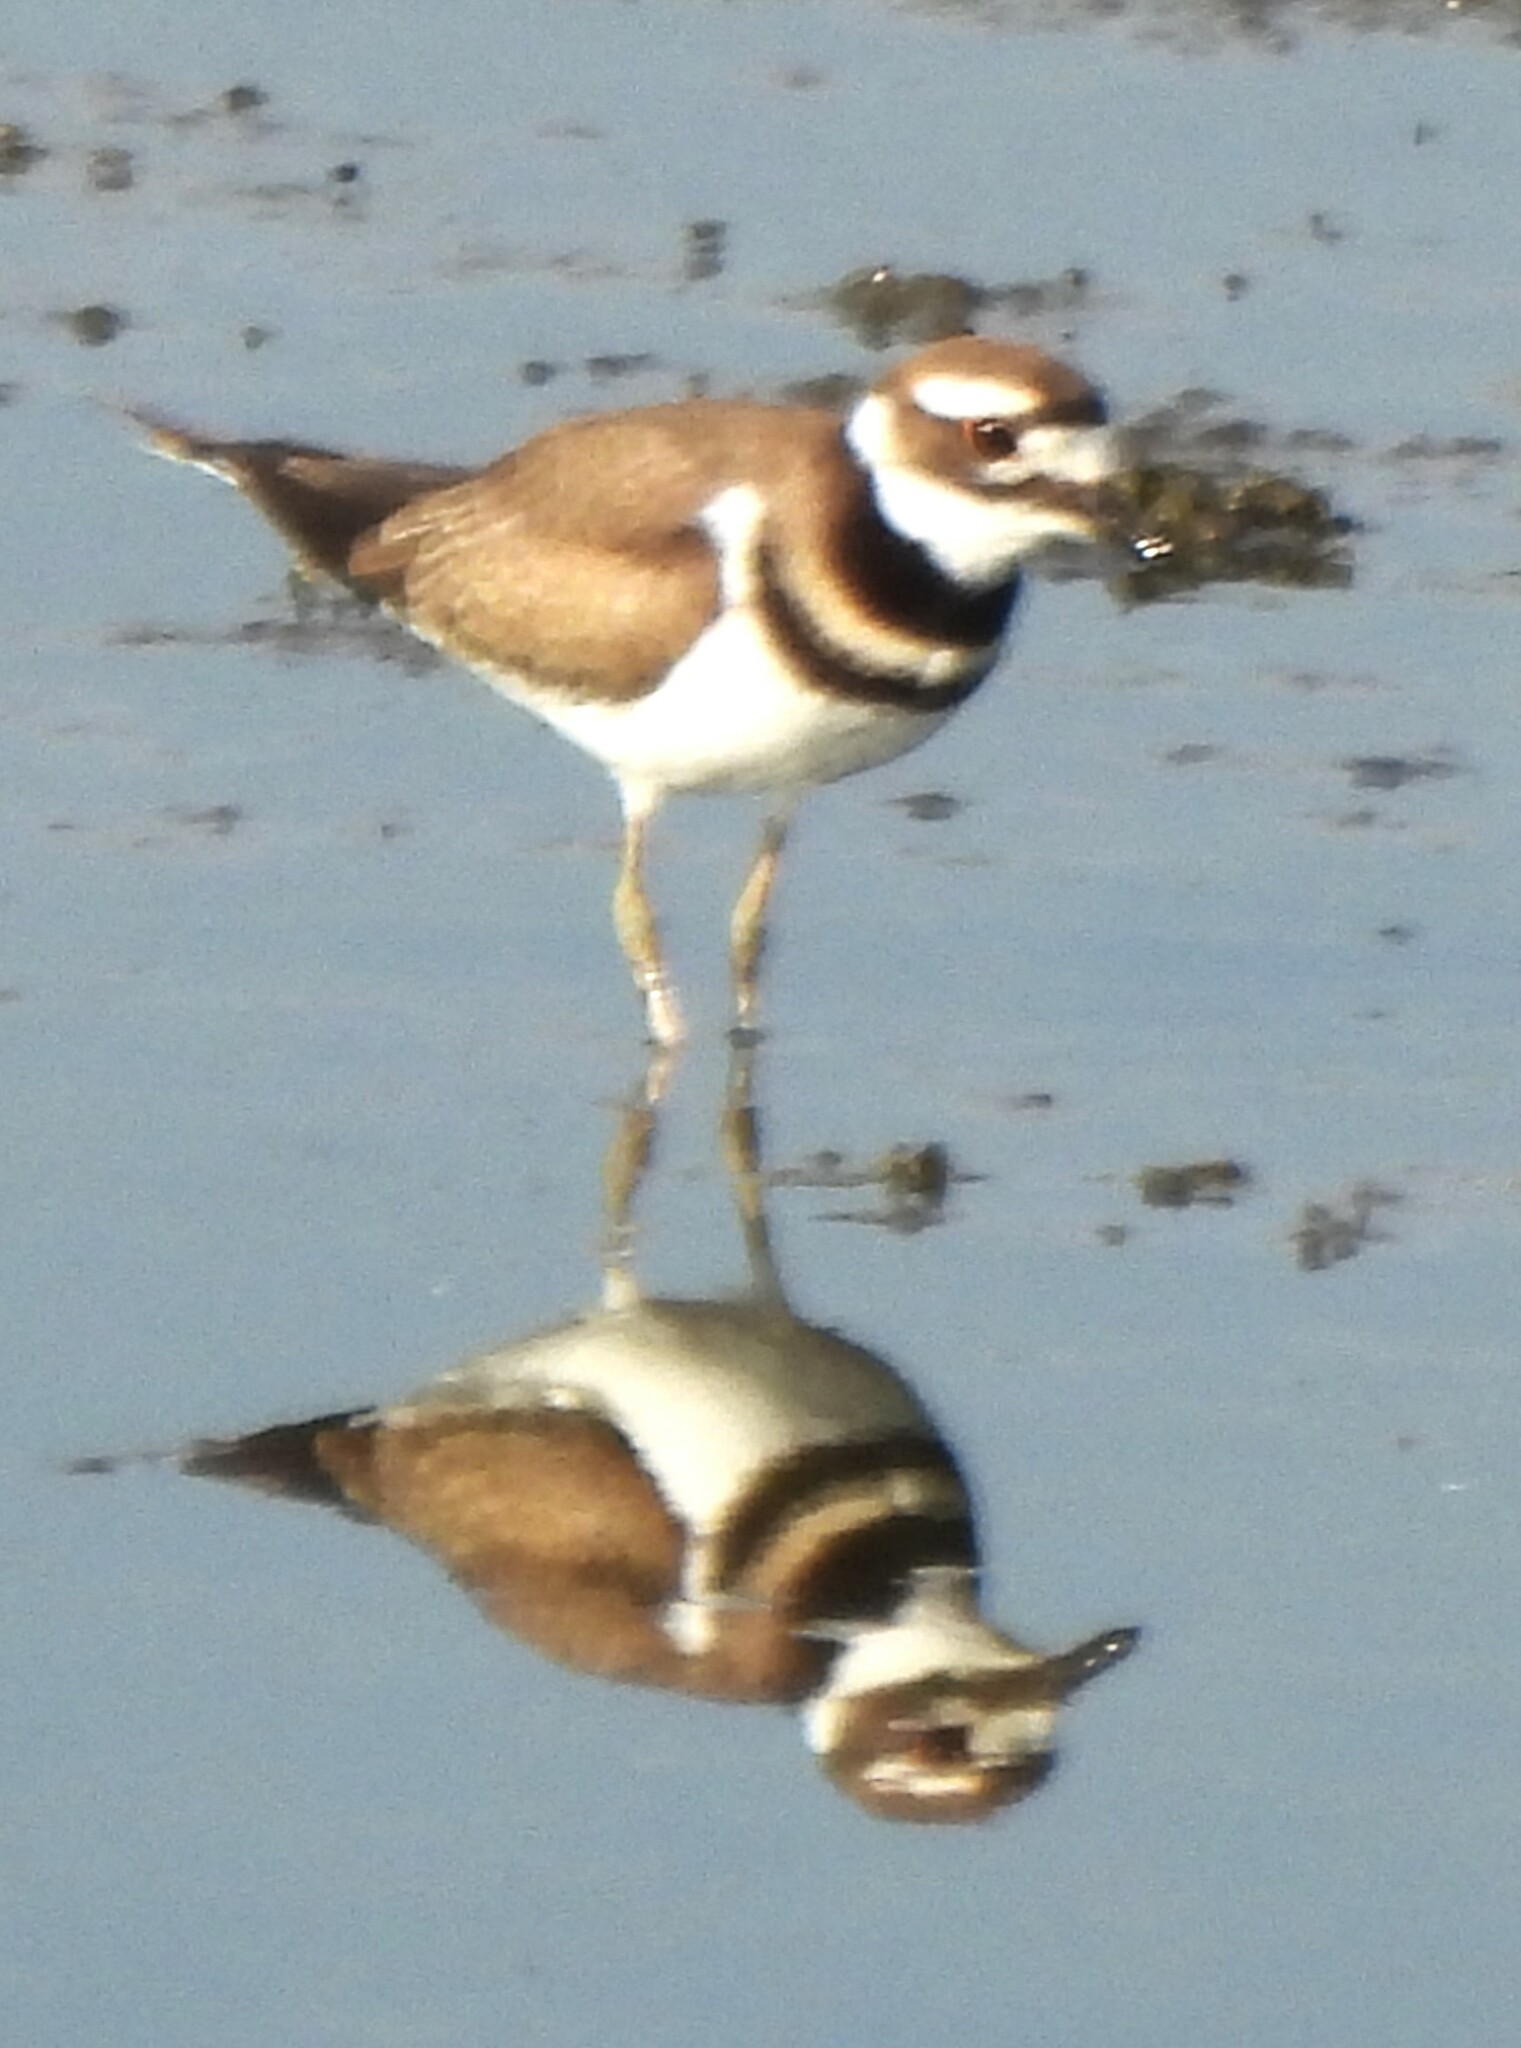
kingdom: Animalia
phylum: Chordata
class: Aves
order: Charadriiformes
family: Charadriidae
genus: Charadrius
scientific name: Charadrius vociferus
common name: Killdeer
